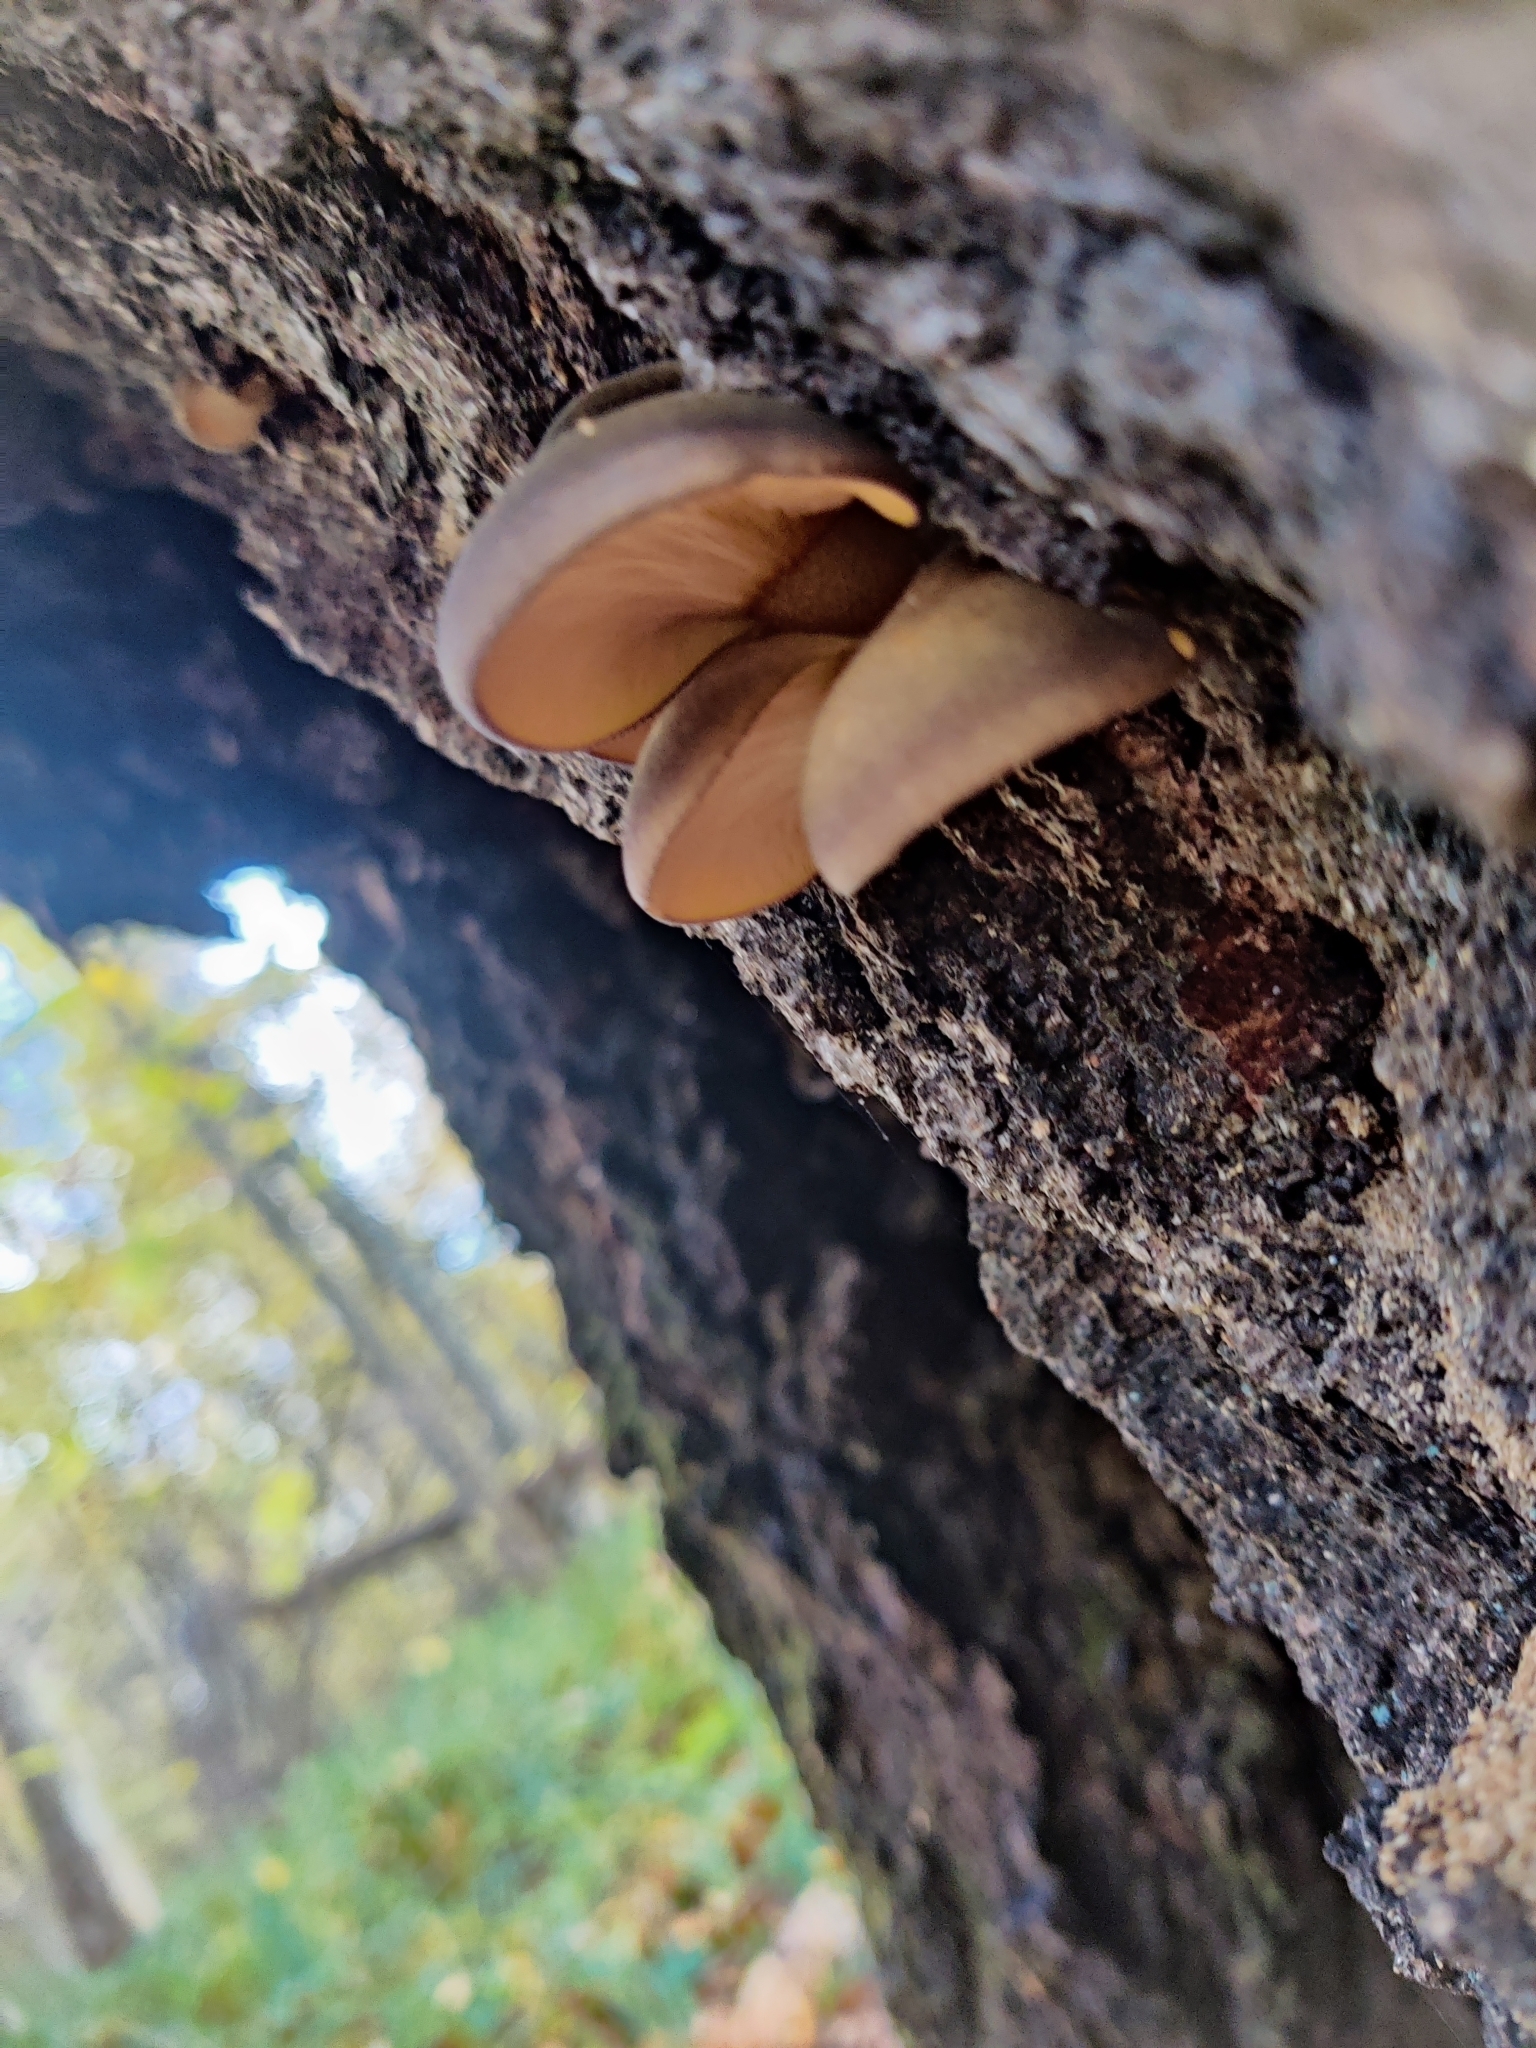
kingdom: Fungi
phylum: Basidiomycota
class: Agaricomycetes
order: Agaricales
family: Sarcomyxaceae
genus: Sarcomyxa
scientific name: Sarcomyxa serotina
